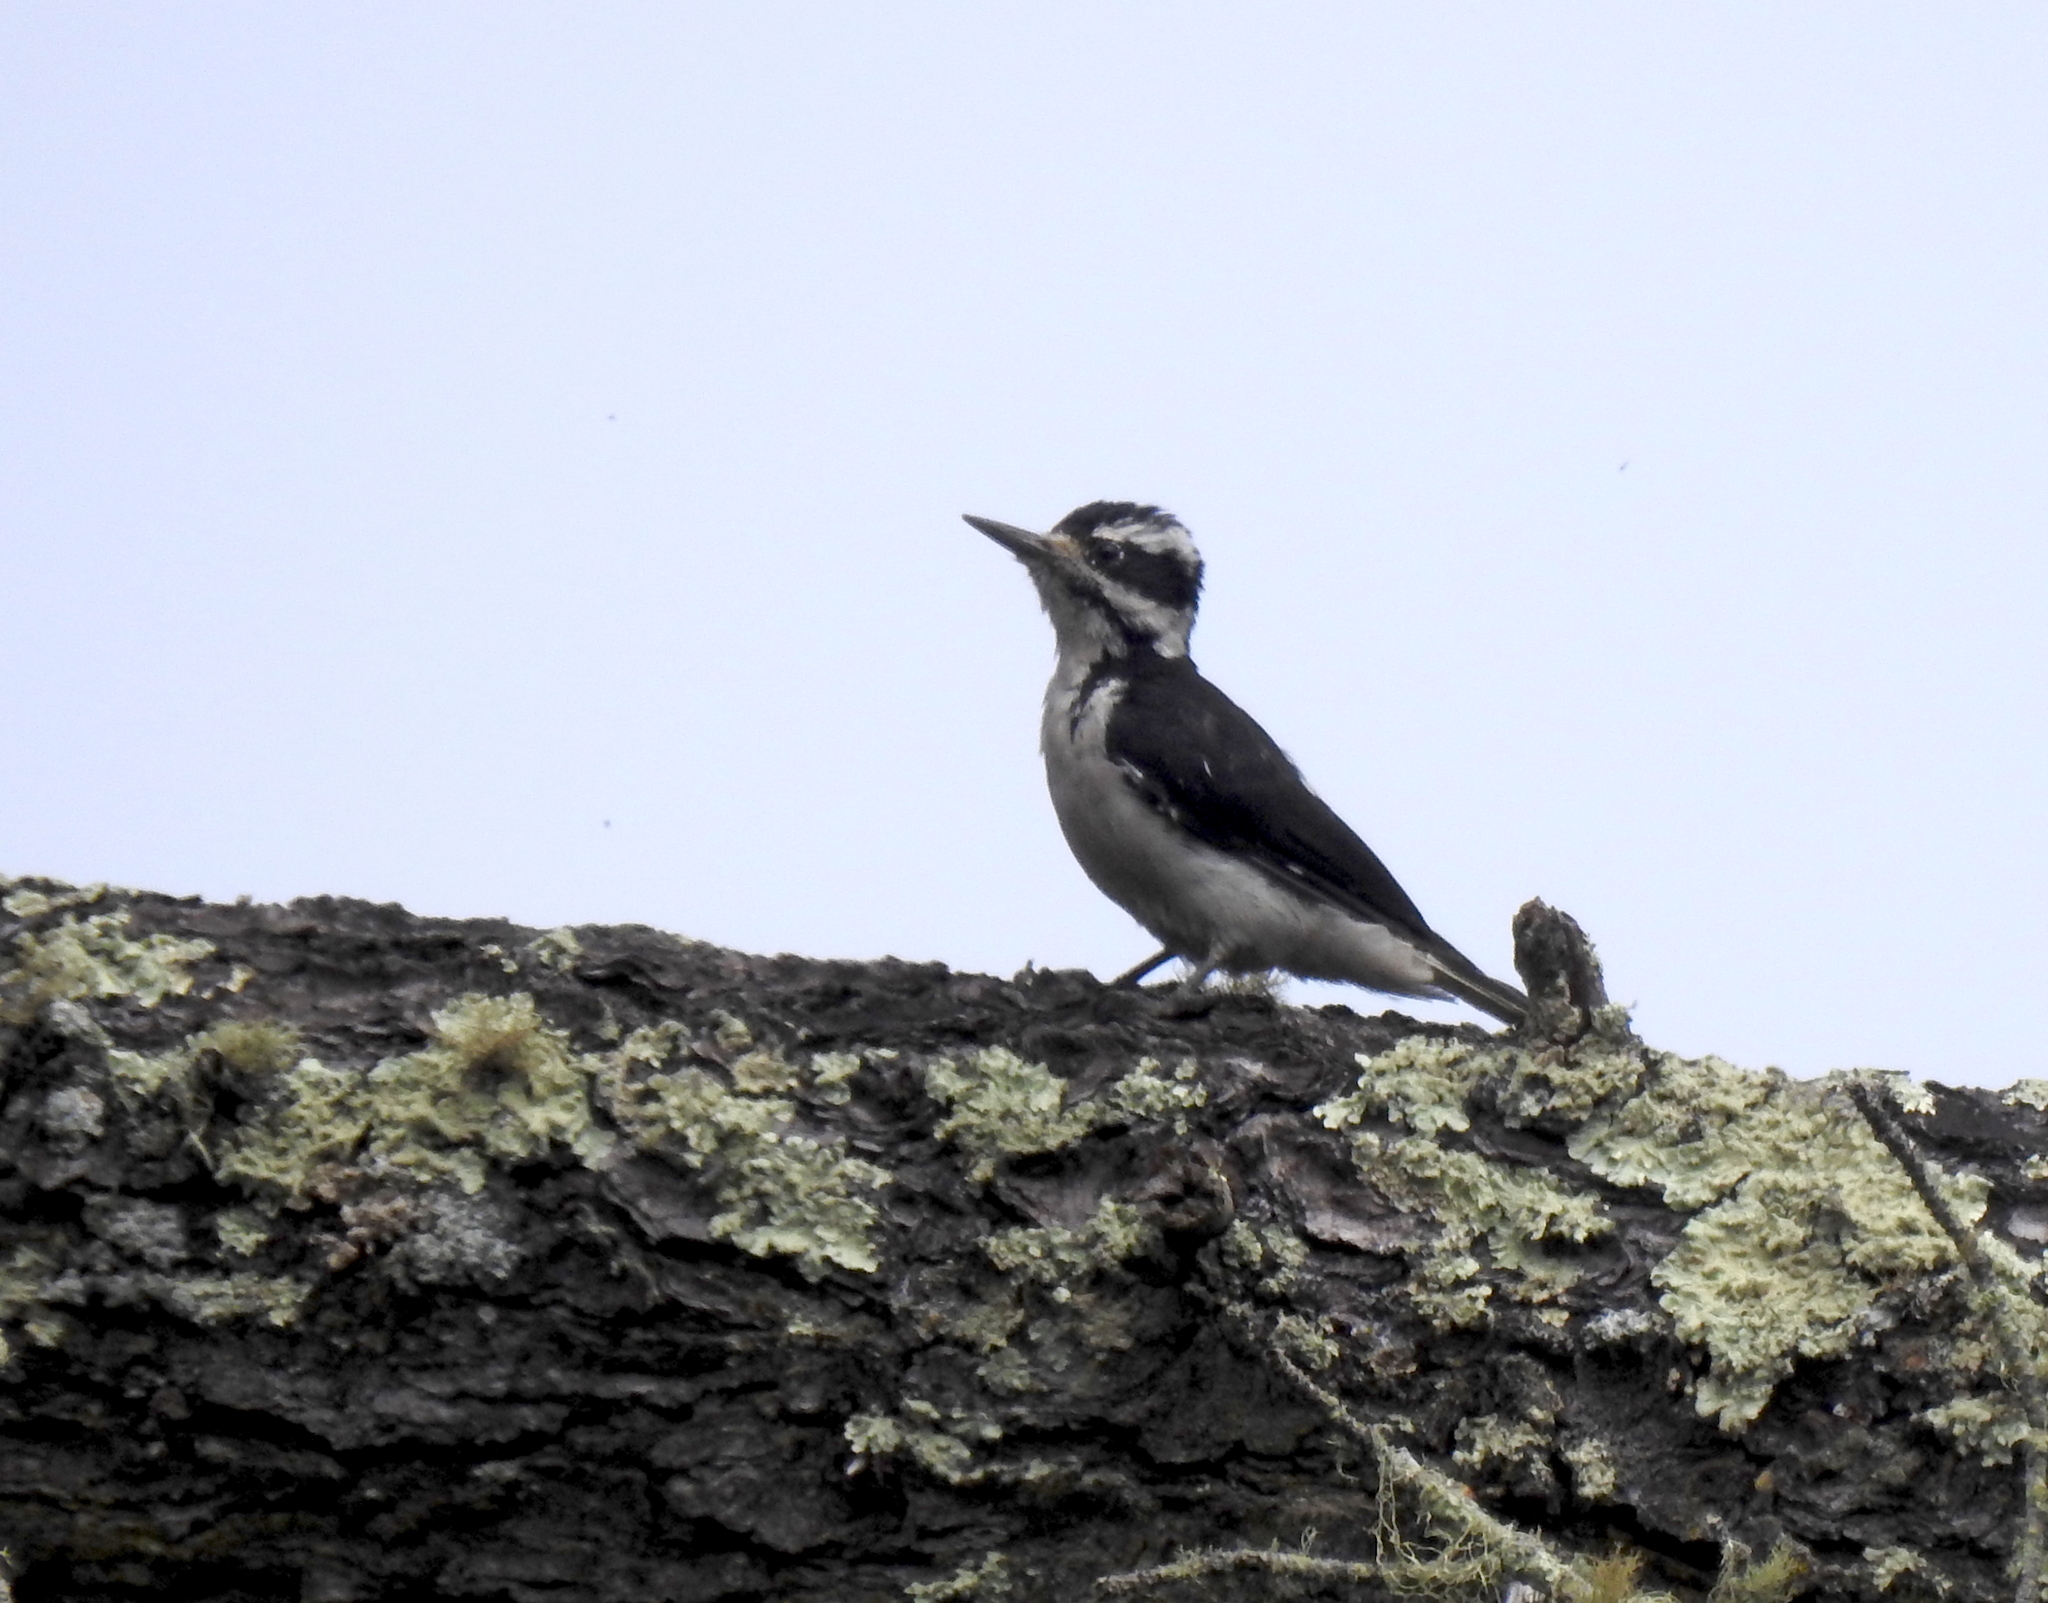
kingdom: Animalia
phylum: Chordata
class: Aves
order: Piciformes
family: Picidae
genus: Leuconotopicus
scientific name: Leuconotopicus villosus
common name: Hairy woodpecker
